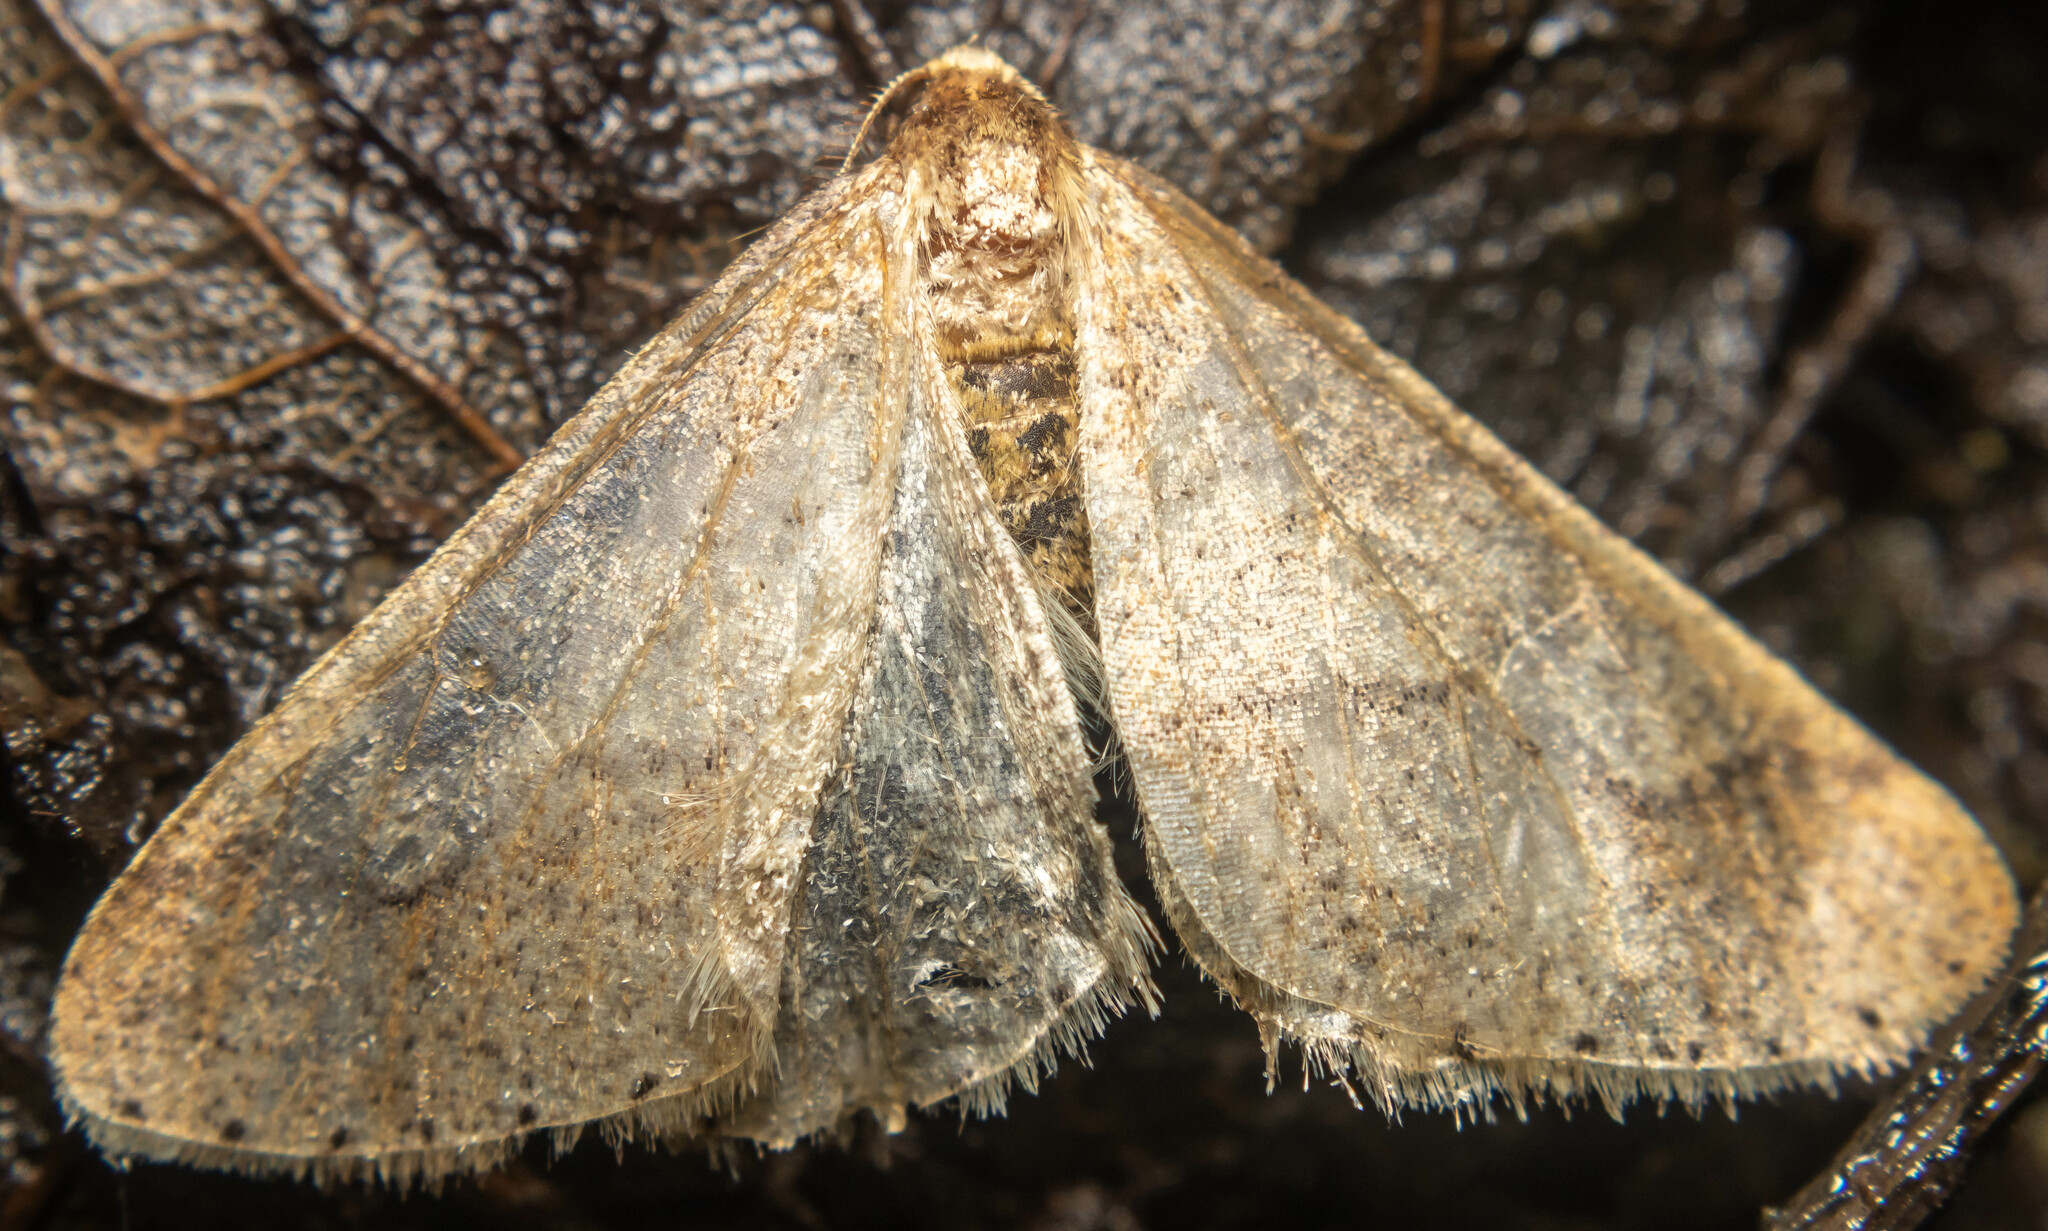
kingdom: Animalia
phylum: Arthropoda
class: Insecta
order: Lepidoptera
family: Geometridae
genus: Agriopis
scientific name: Agriopis marginaria
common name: Dotted border
